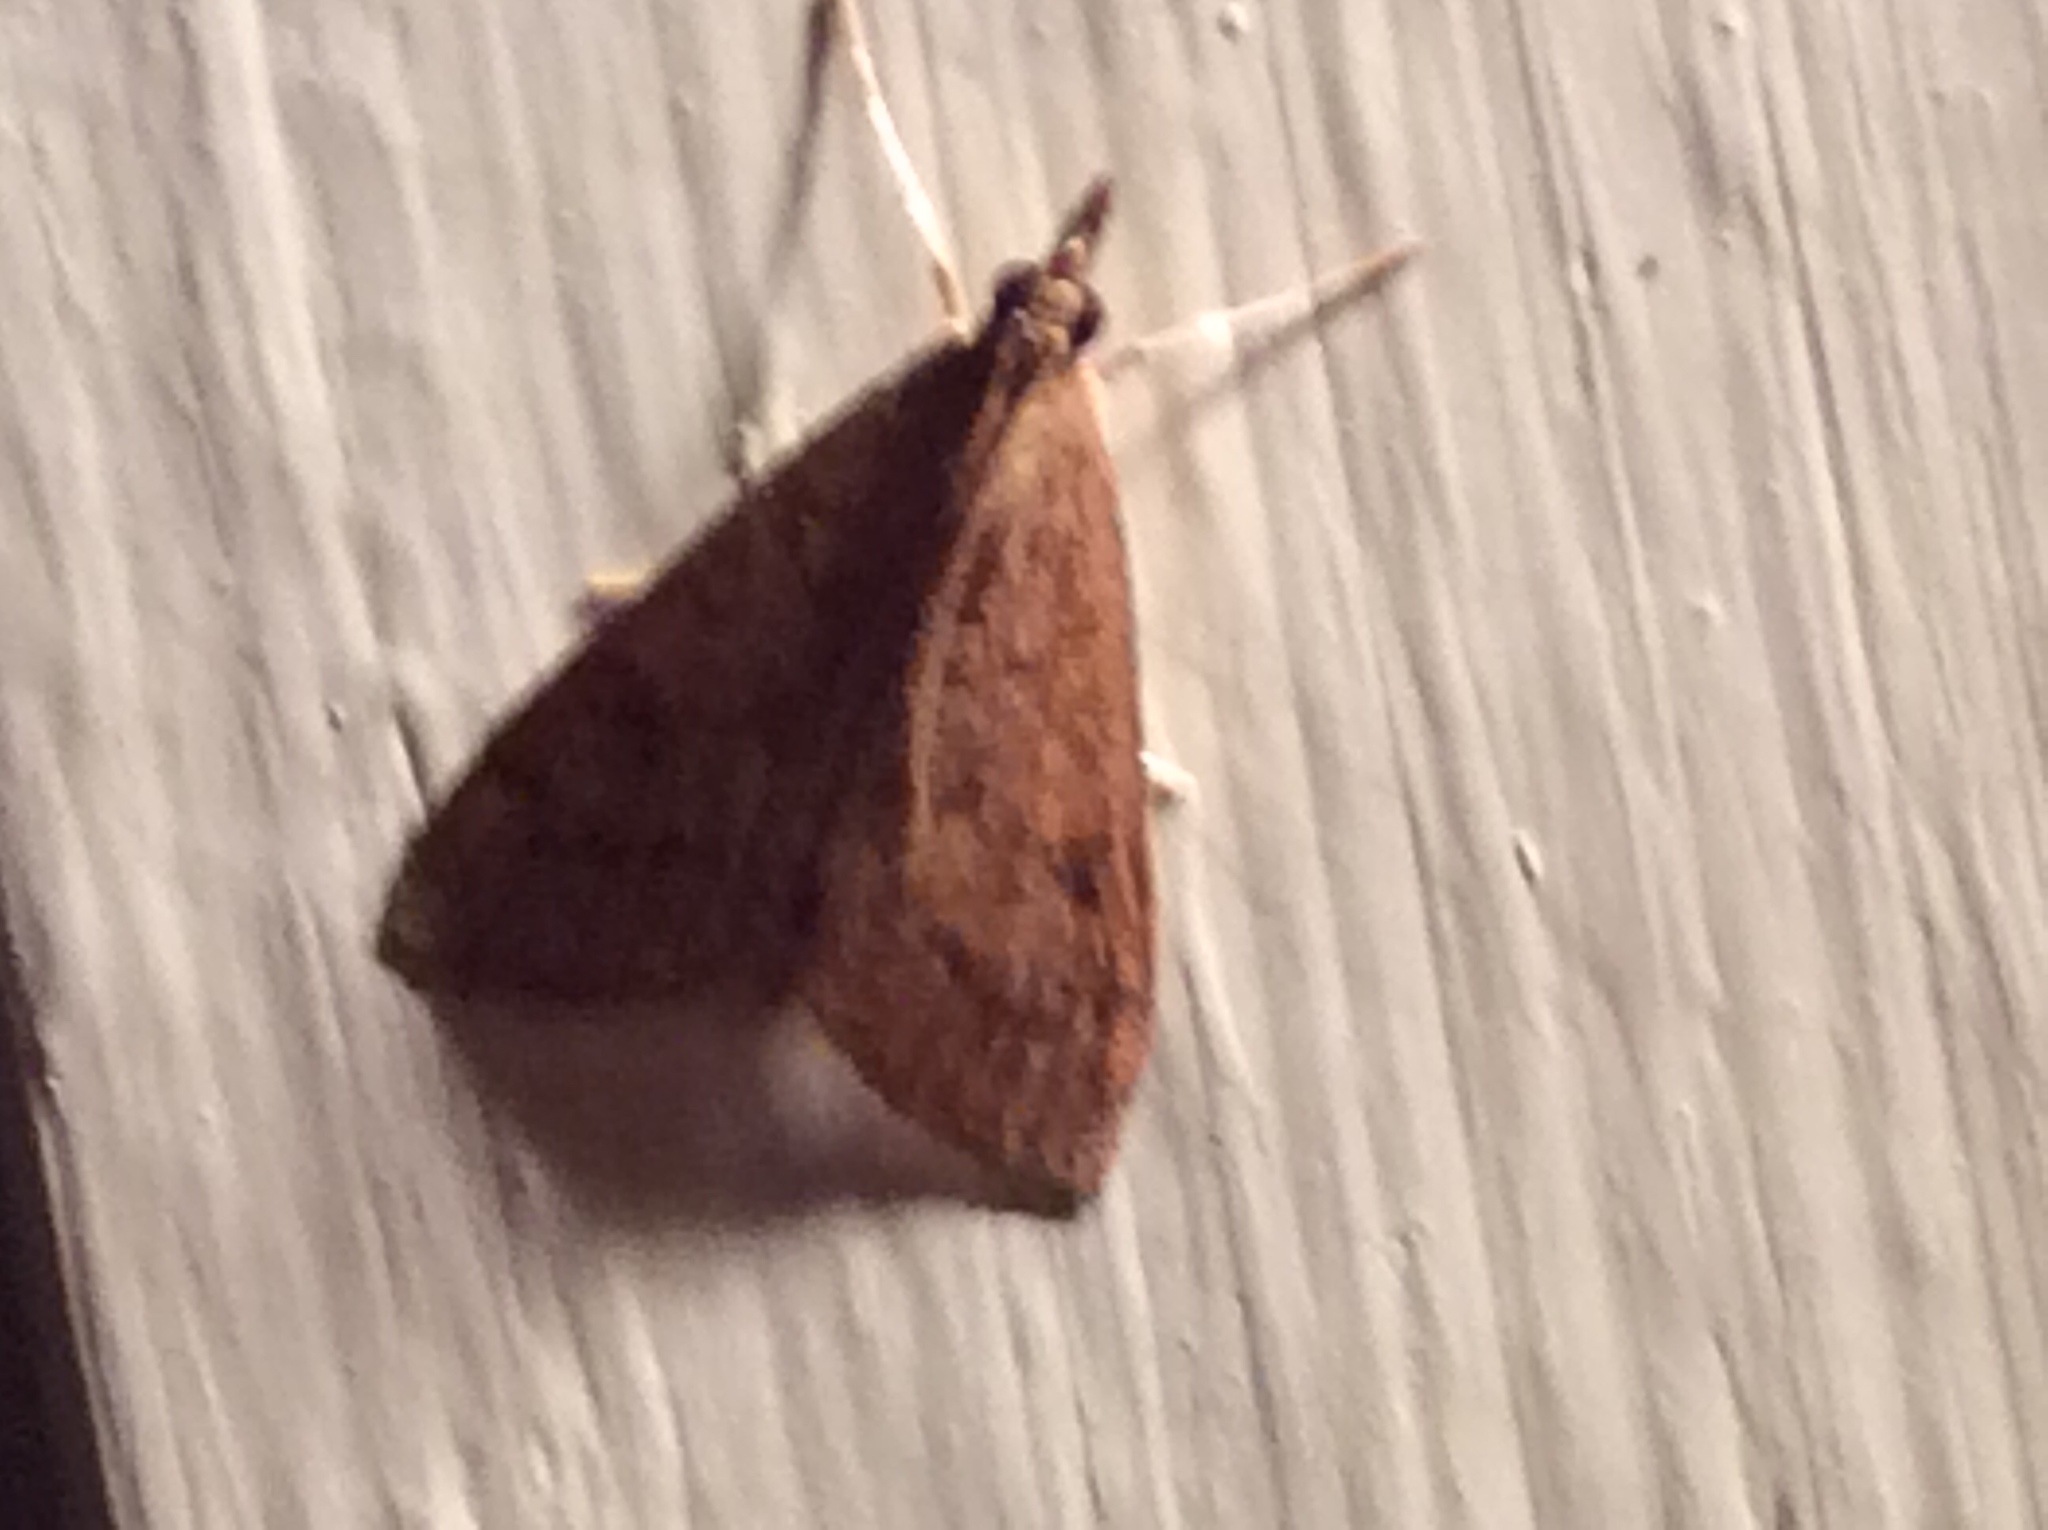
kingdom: Animalia
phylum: Arthropoda
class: Insecta
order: Lepidoptera
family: Crambidae
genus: Udea
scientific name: Udea rubigalis
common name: Celery leaftier moth
